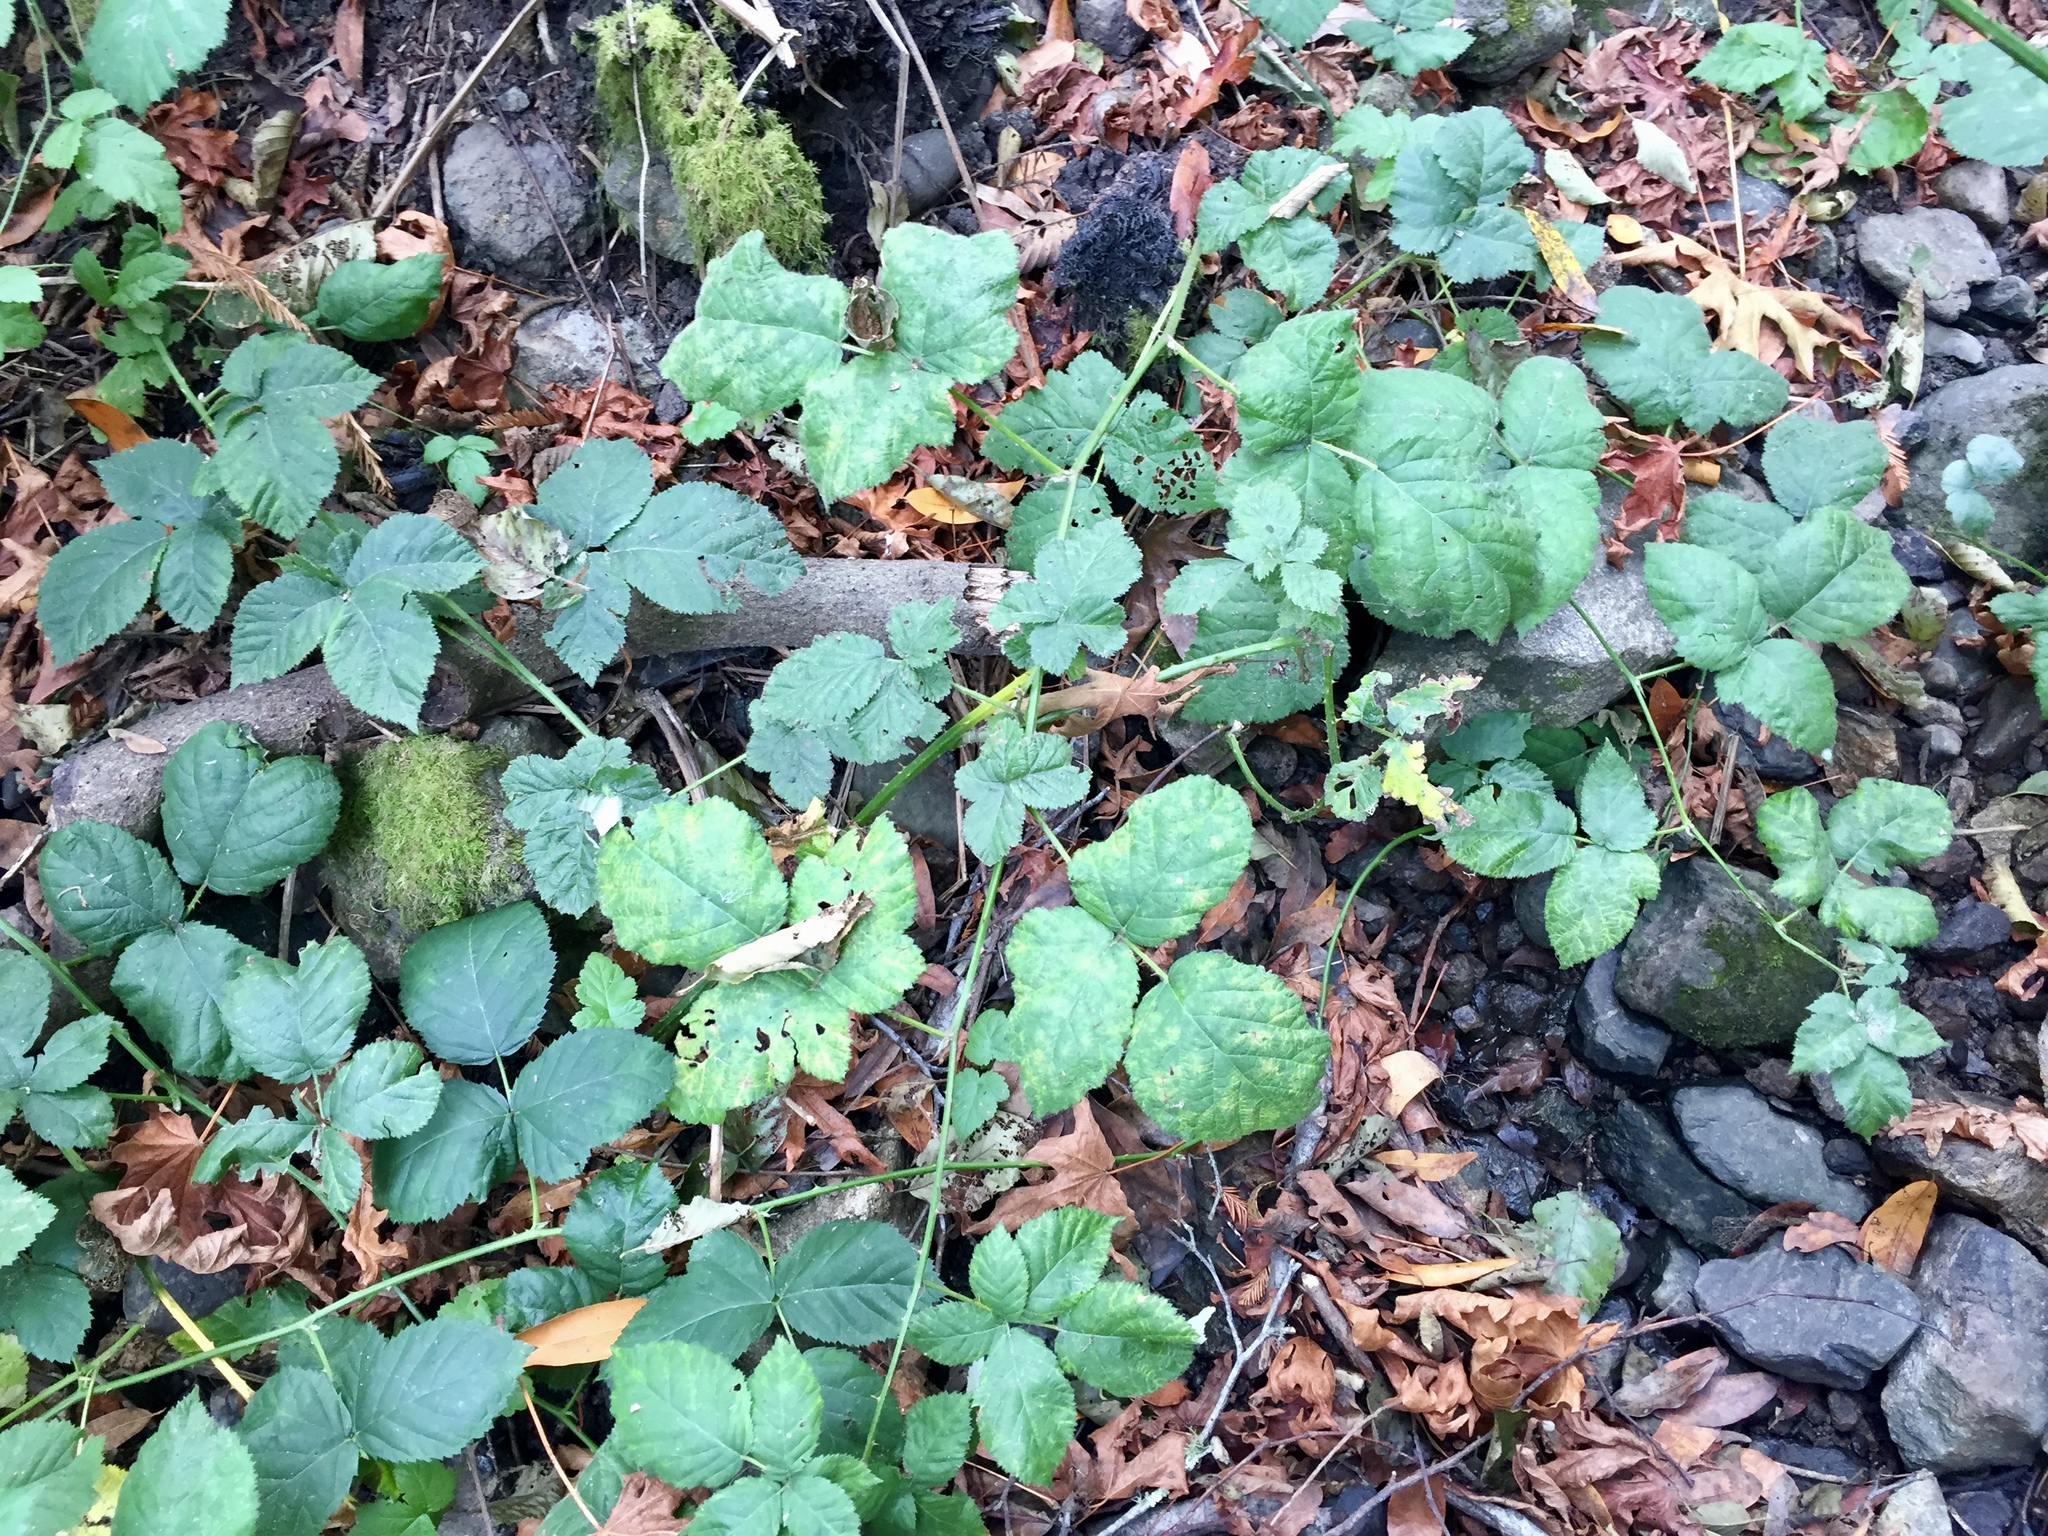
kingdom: Plantae
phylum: Tracheophyta
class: Magnoliopsida
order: Rosales
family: Rosaceae
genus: Rubus
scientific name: Rubus armeniacus
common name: Himalayan blackberry
